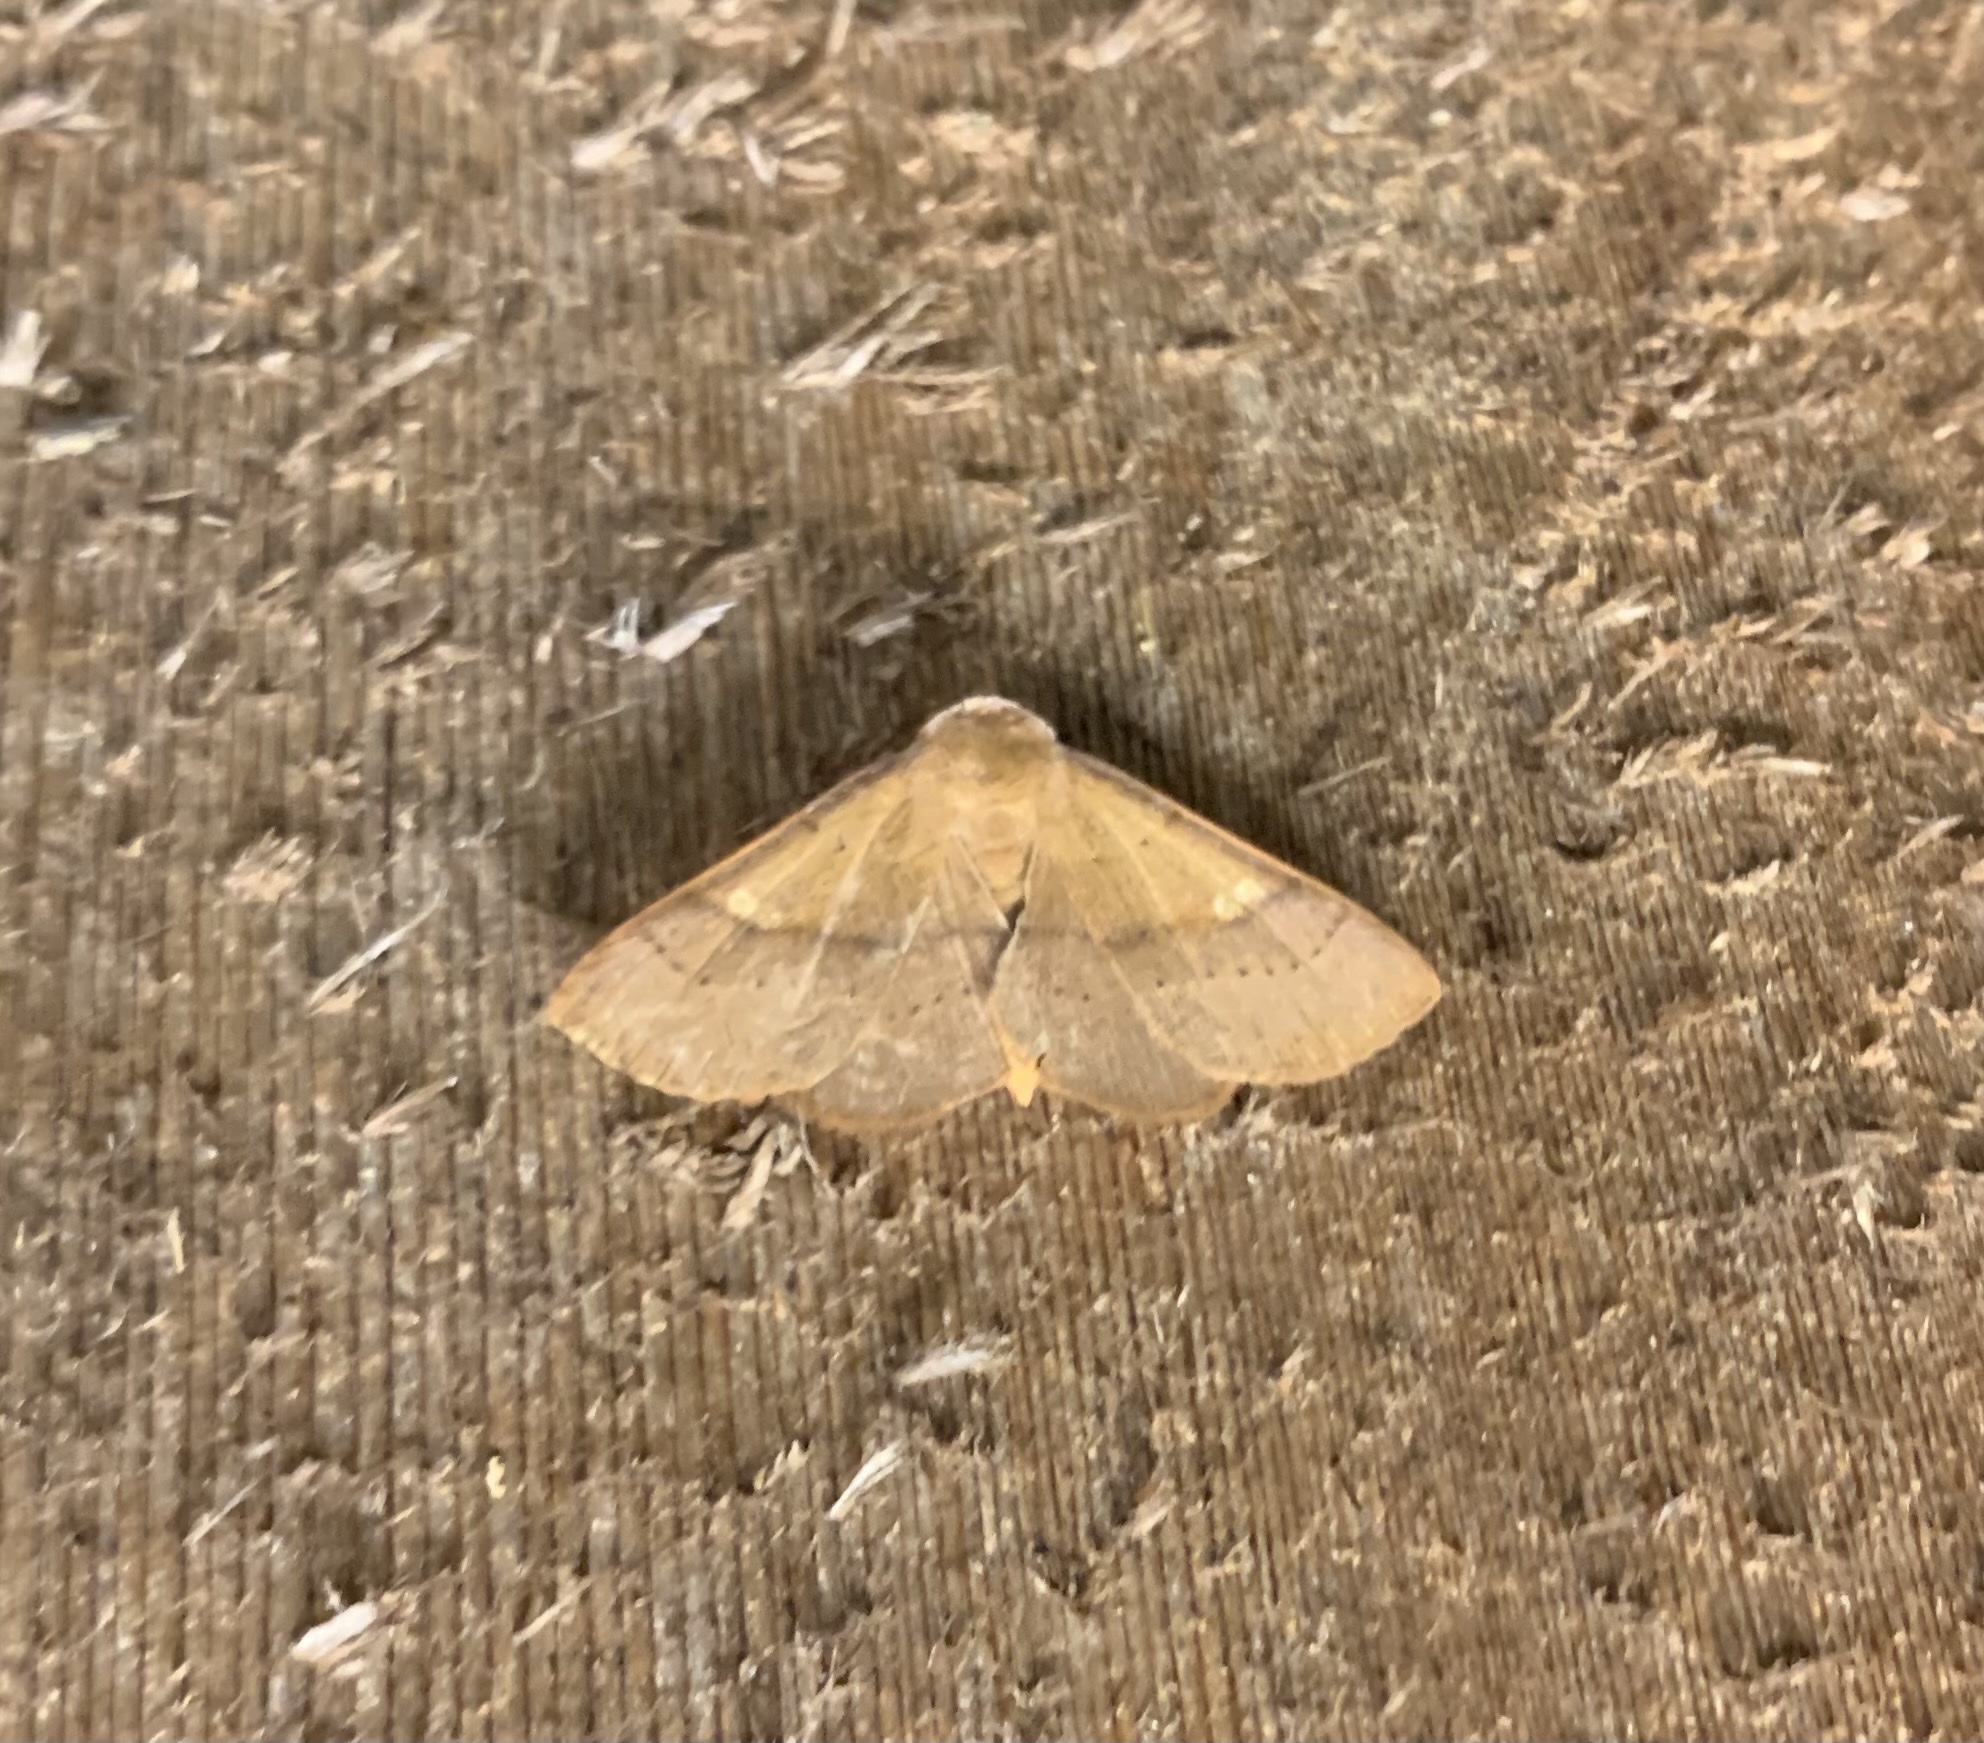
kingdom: Animalia
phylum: Arthropoda
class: Insecta
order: Lepidoptera
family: Erebidae
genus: Panopoda
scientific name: Panopoda repanda
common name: Orange panopoda
